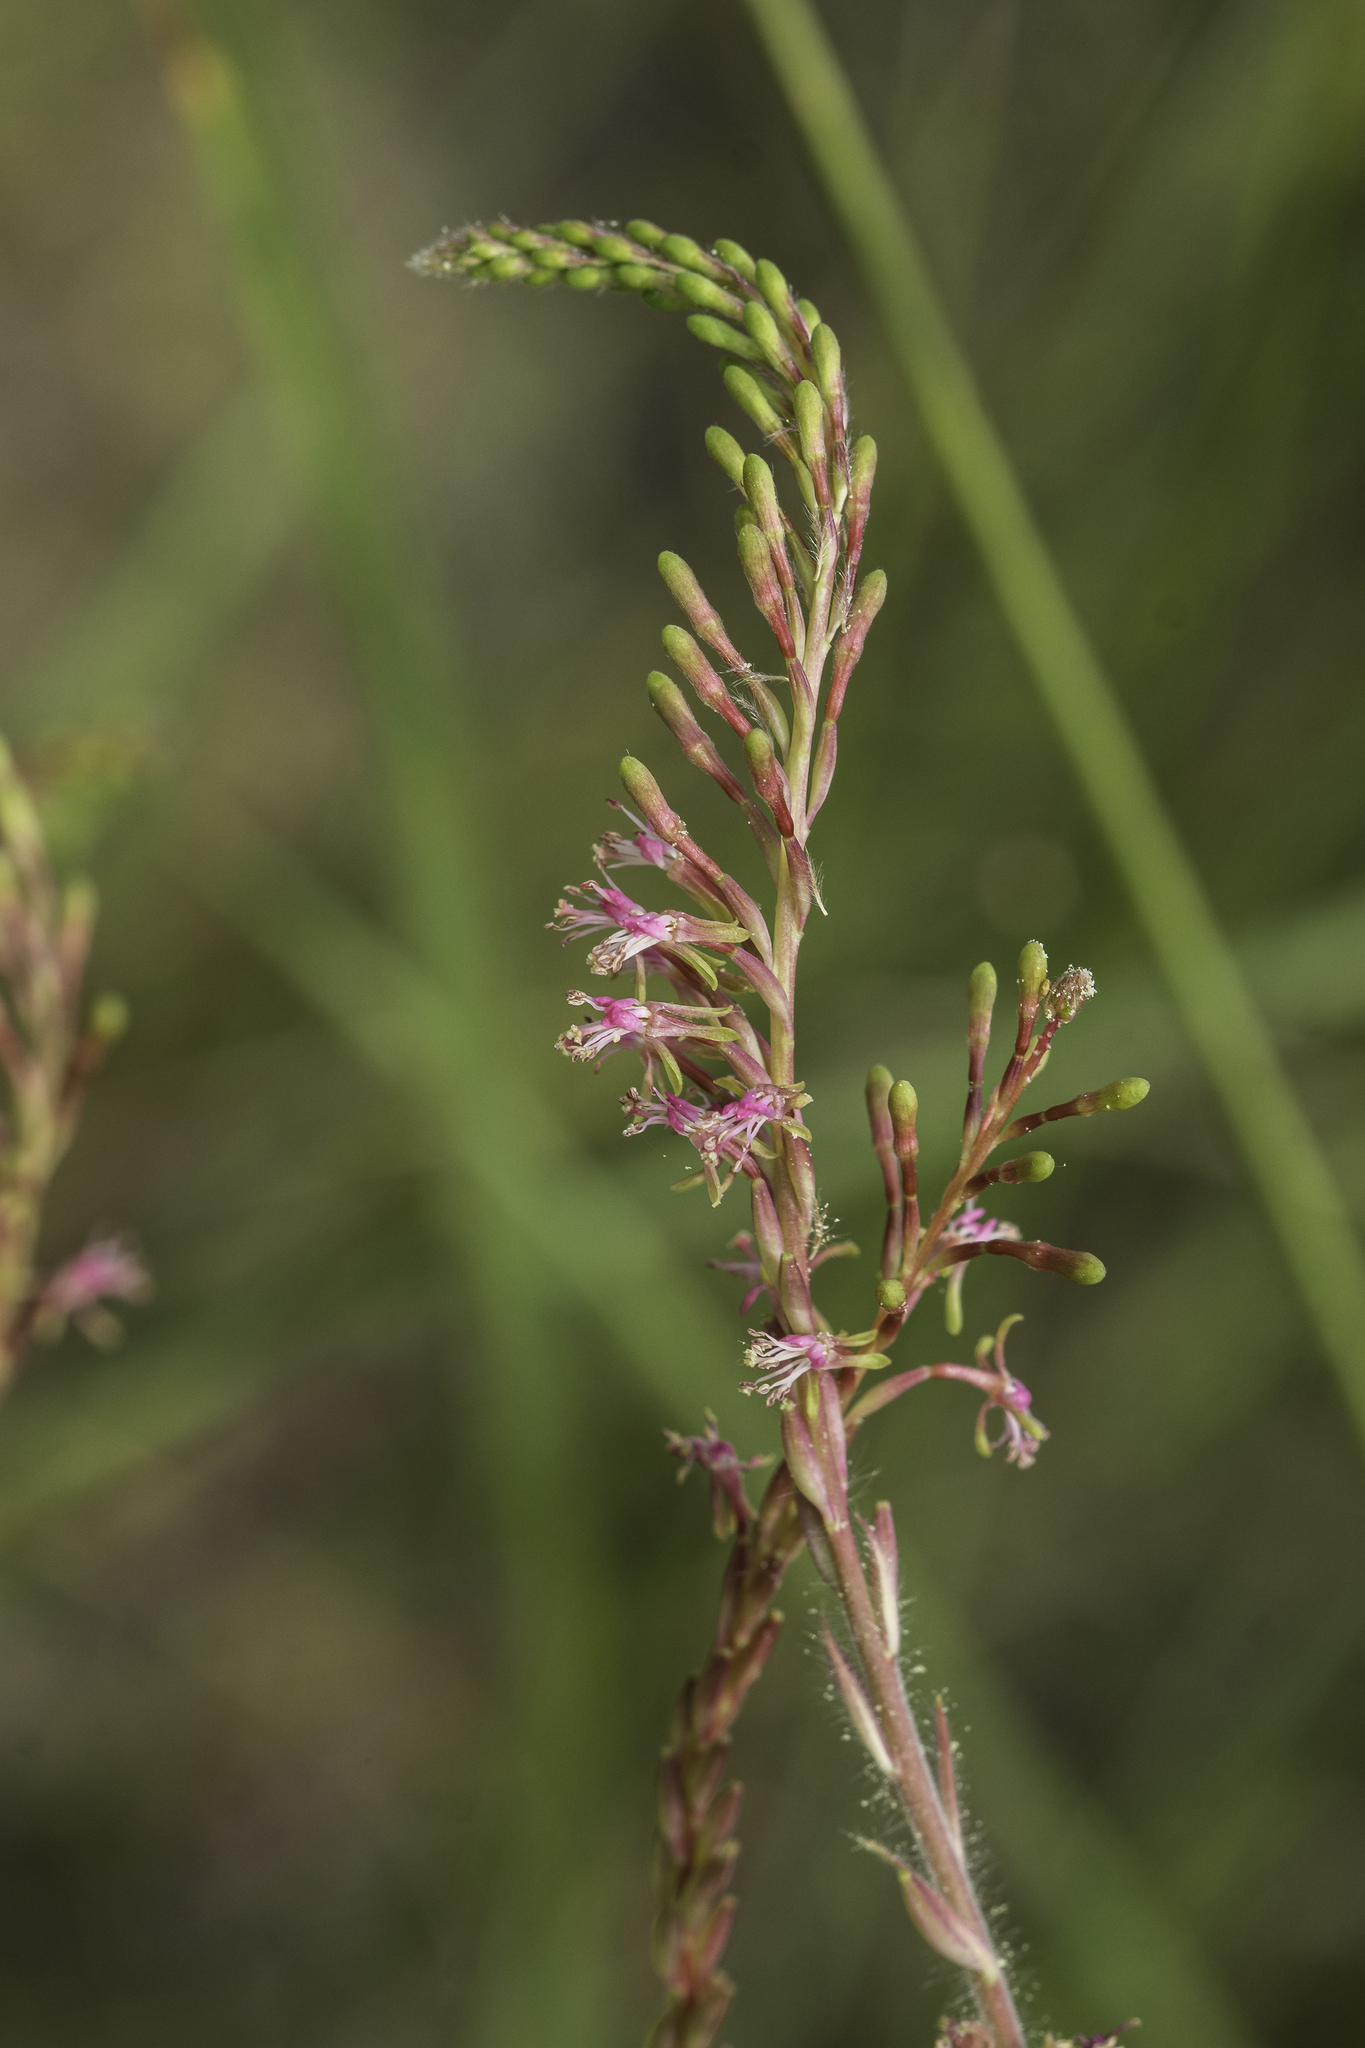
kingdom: Plantae
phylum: Tracheophyta
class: Magnoliopsida
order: Myrtales
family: Onagraceae
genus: Oenothera
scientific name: Oenothera curtiflora
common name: Velvetweed
